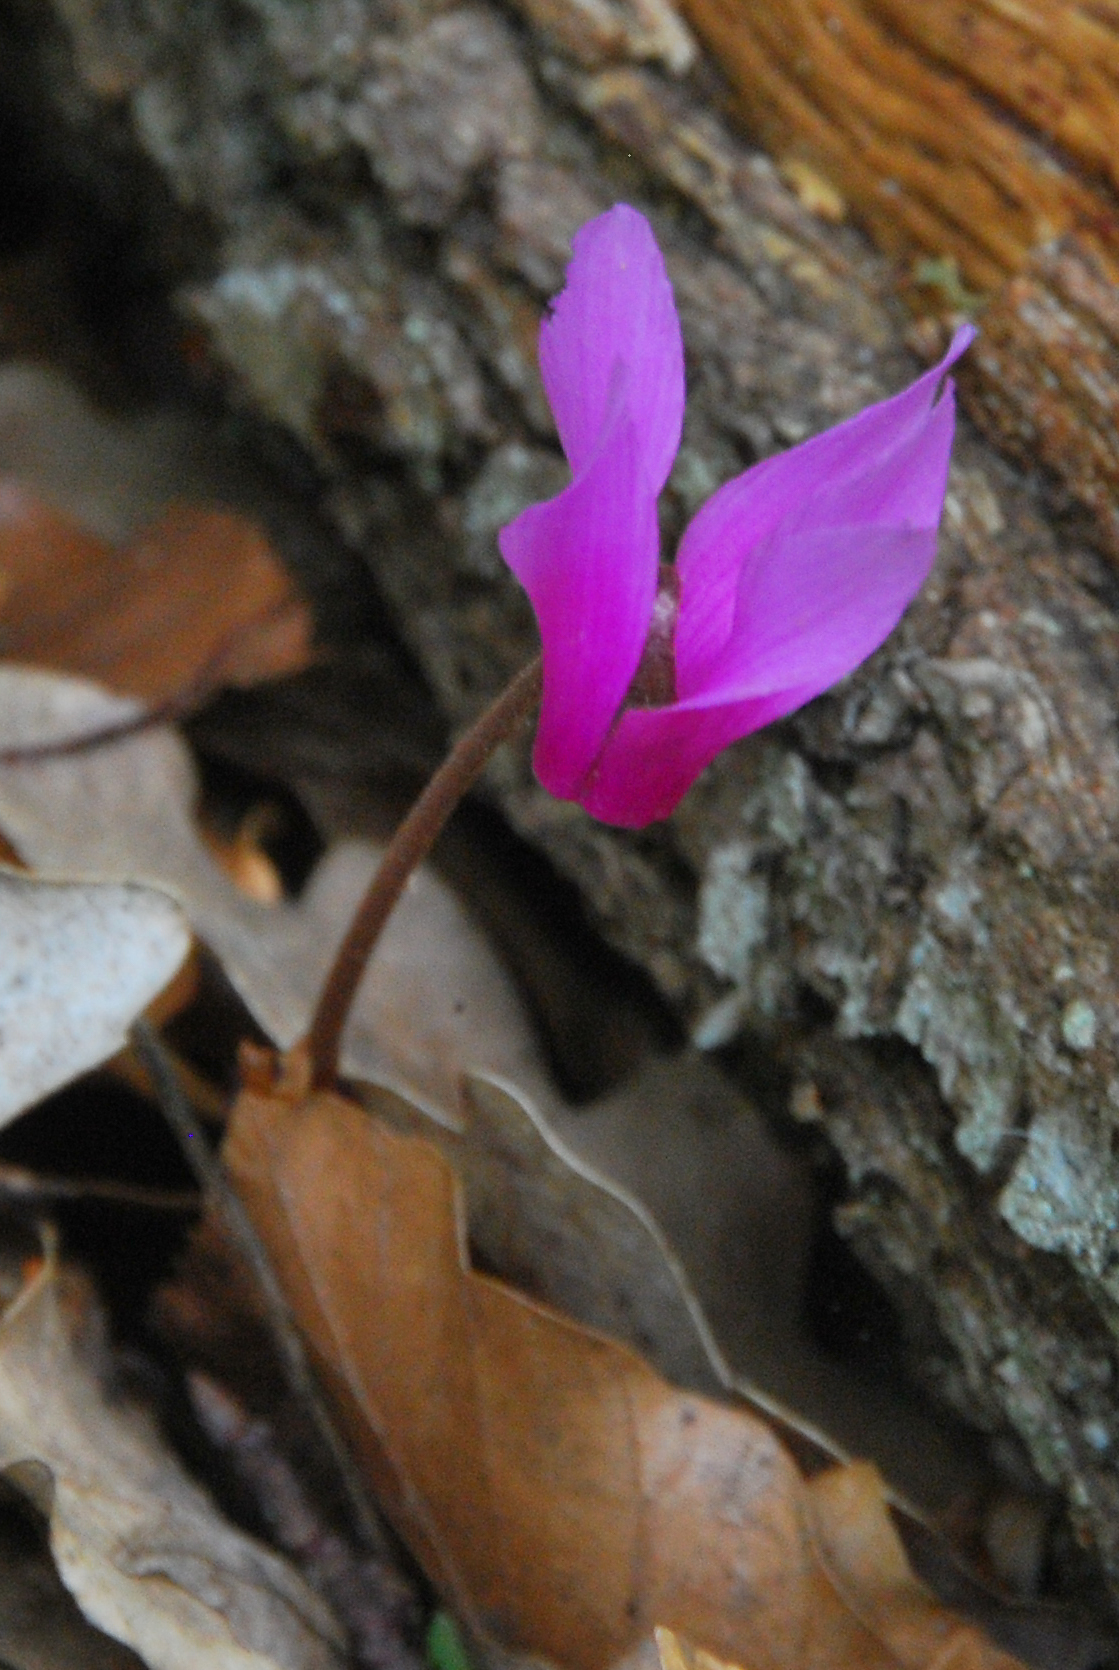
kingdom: Plantae
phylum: Tracheophyta
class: Magnoliopsida
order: Ericales
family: Primulaceae
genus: Cyclamen
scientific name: Cyclamen repandum
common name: Spring sowbread
